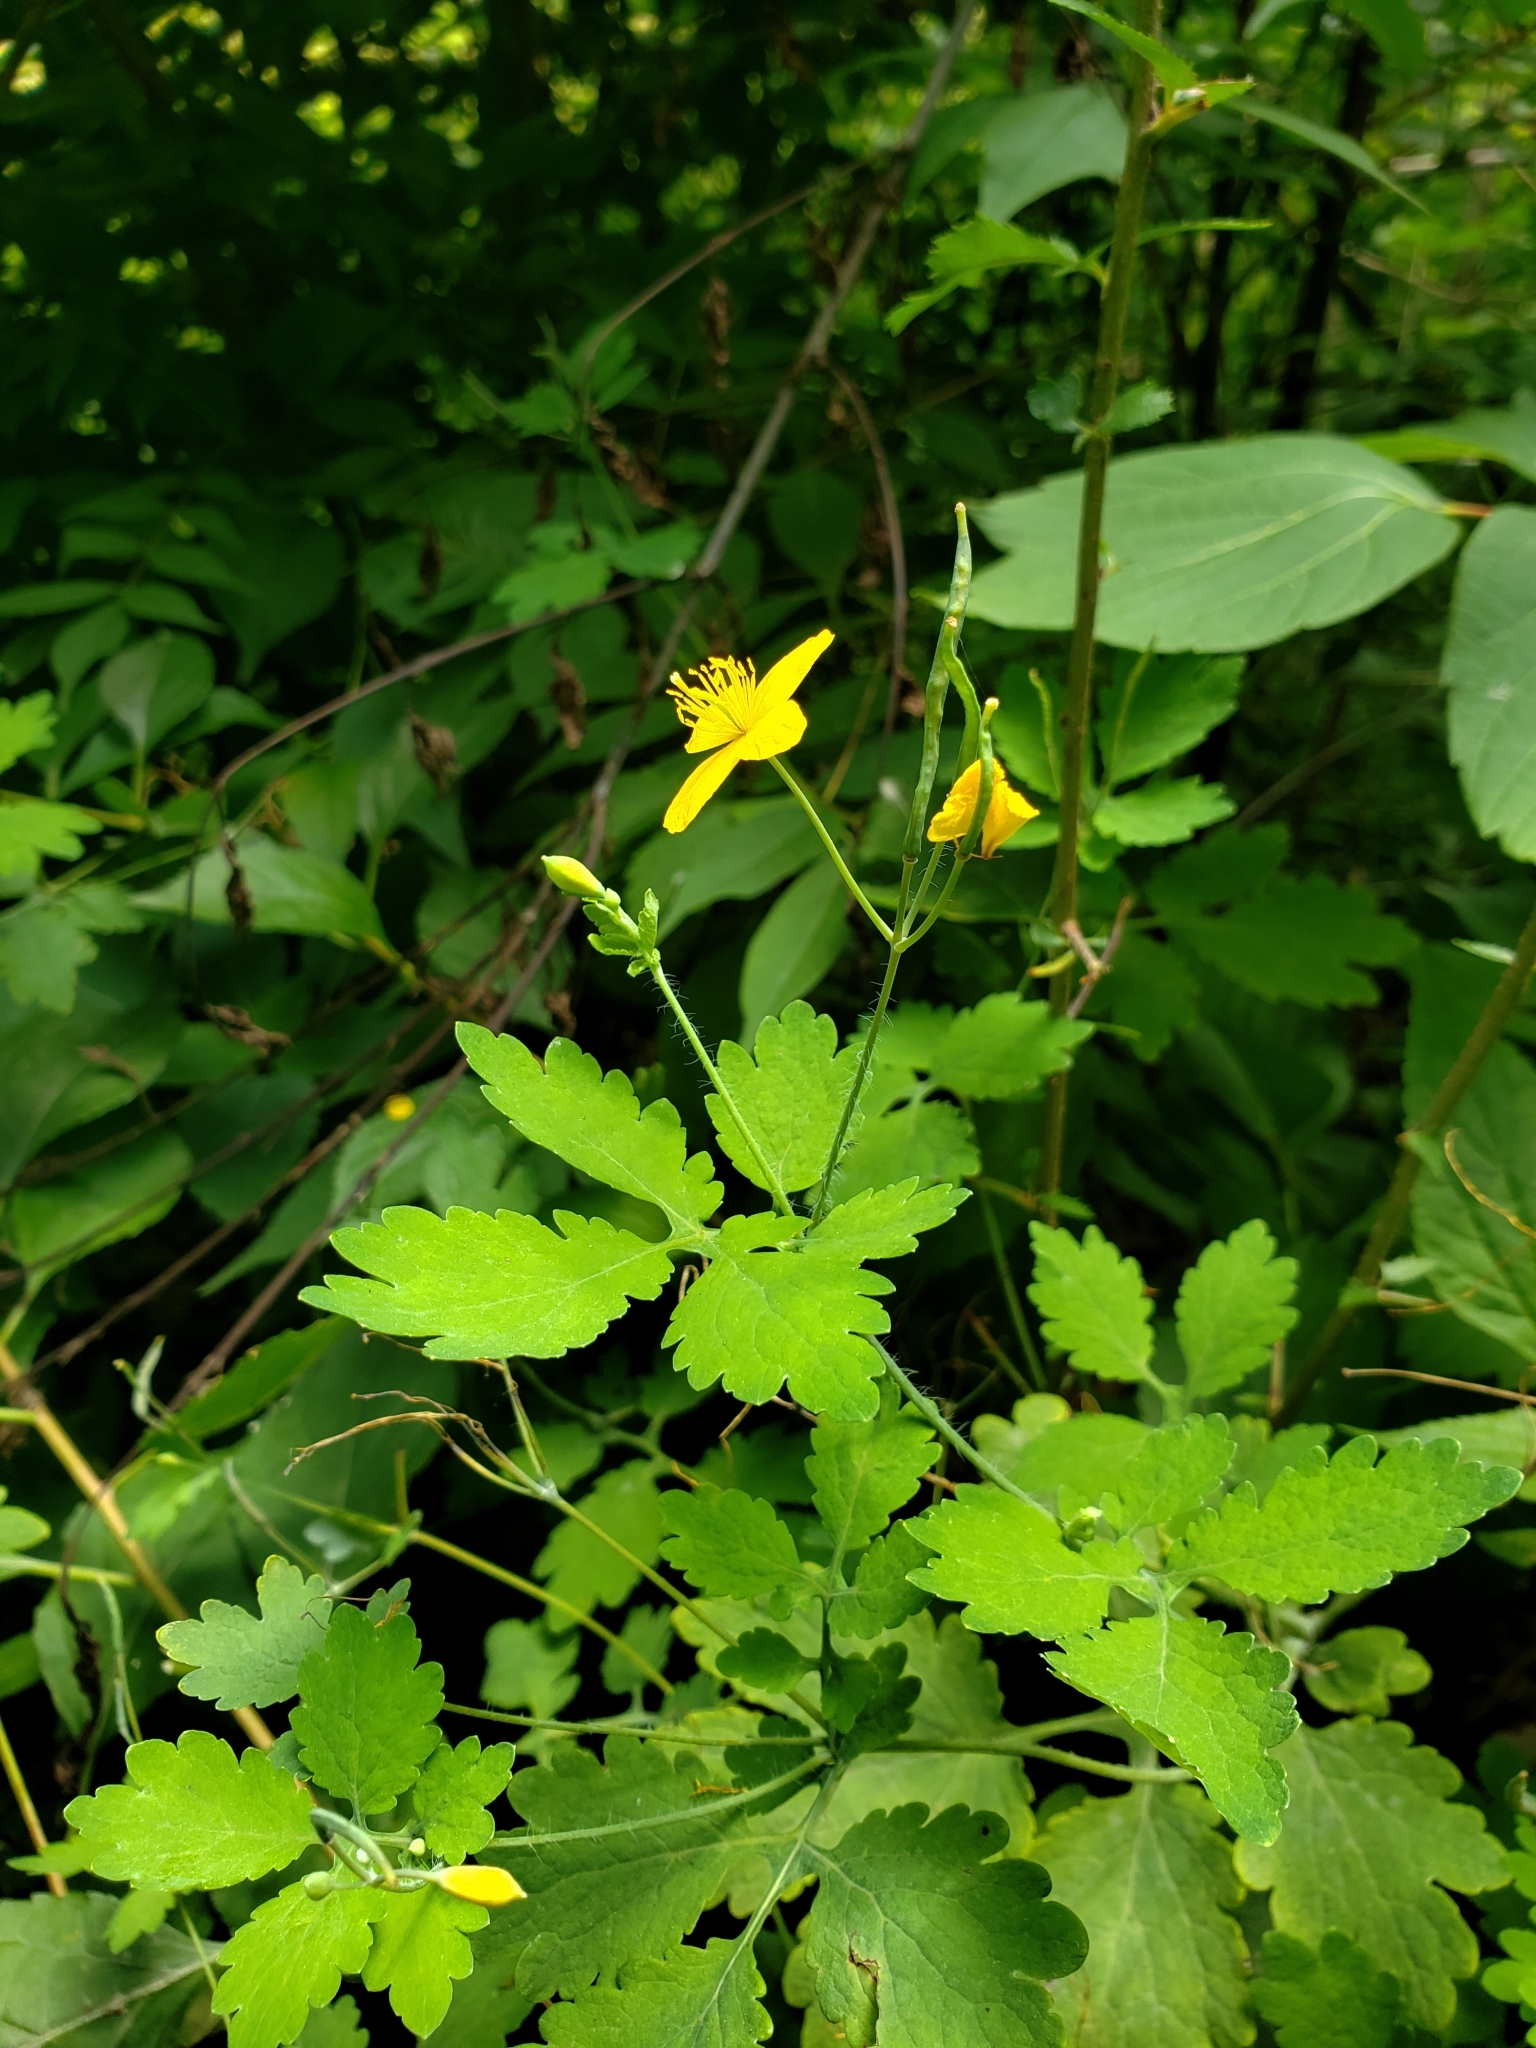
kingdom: Plantae
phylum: Tracheophyta
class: Magnoliopsida
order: Ranunculales
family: Papaveraceae
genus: Chelidonium
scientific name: Chelidonium majus
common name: Greater celandine
